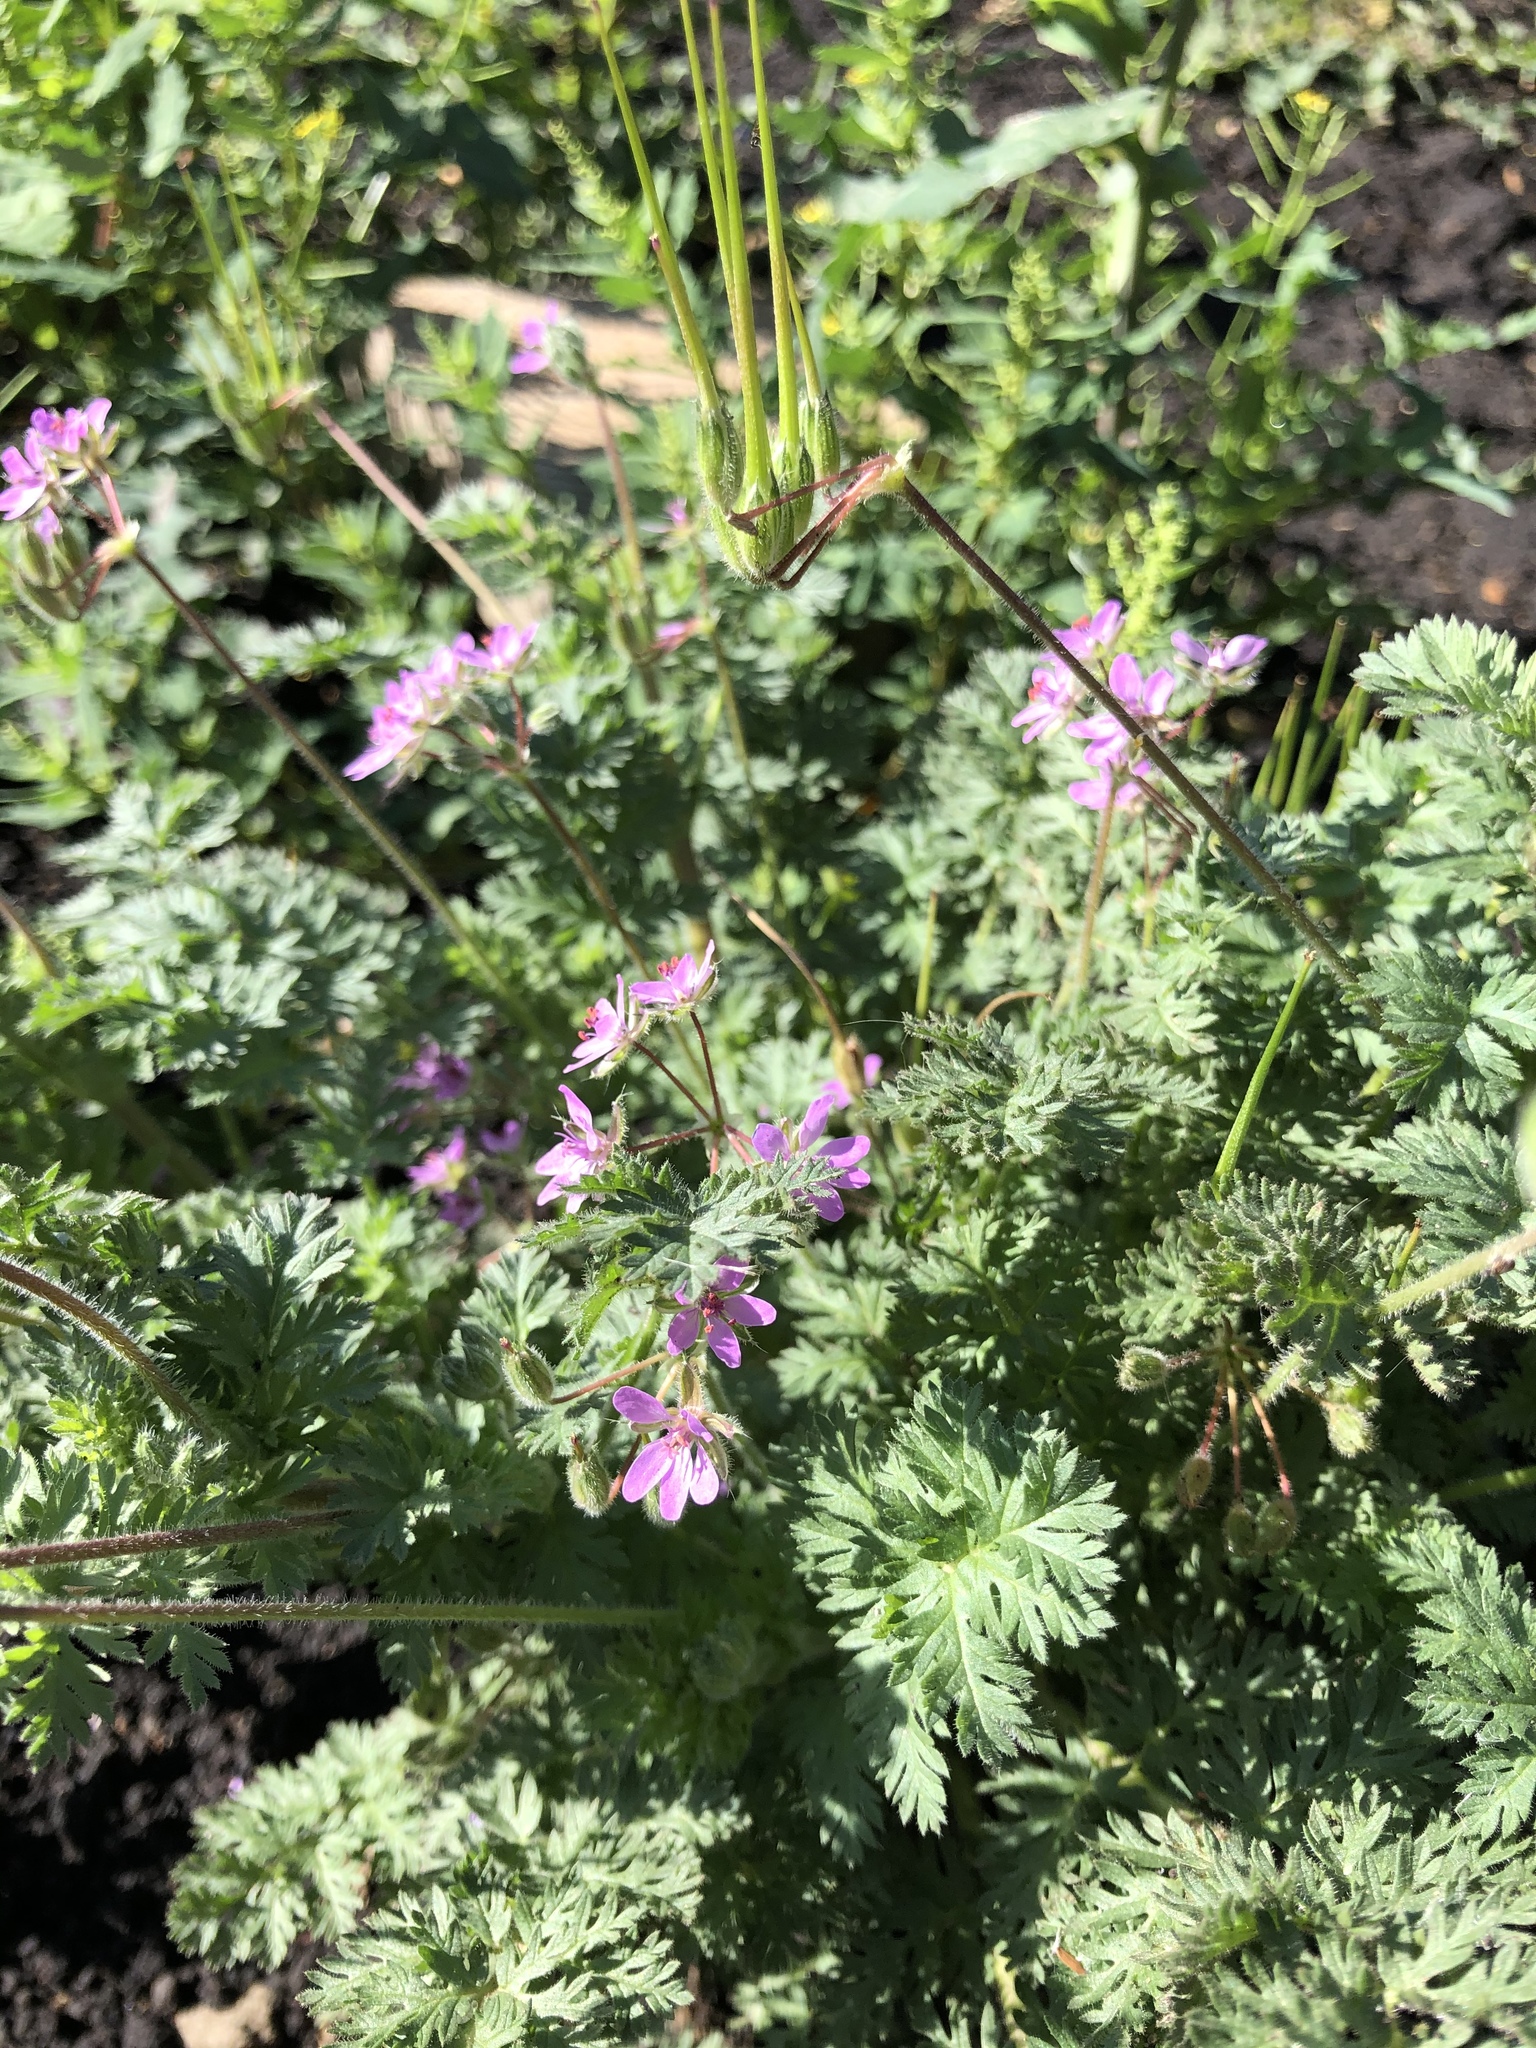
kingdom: Plantae
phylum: Tracheophyta
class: Magnoliopsida
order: Geraniales
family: Geraniaceae
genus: Erodium
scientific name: Erodium cicutarium
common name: Common stork's-bill
